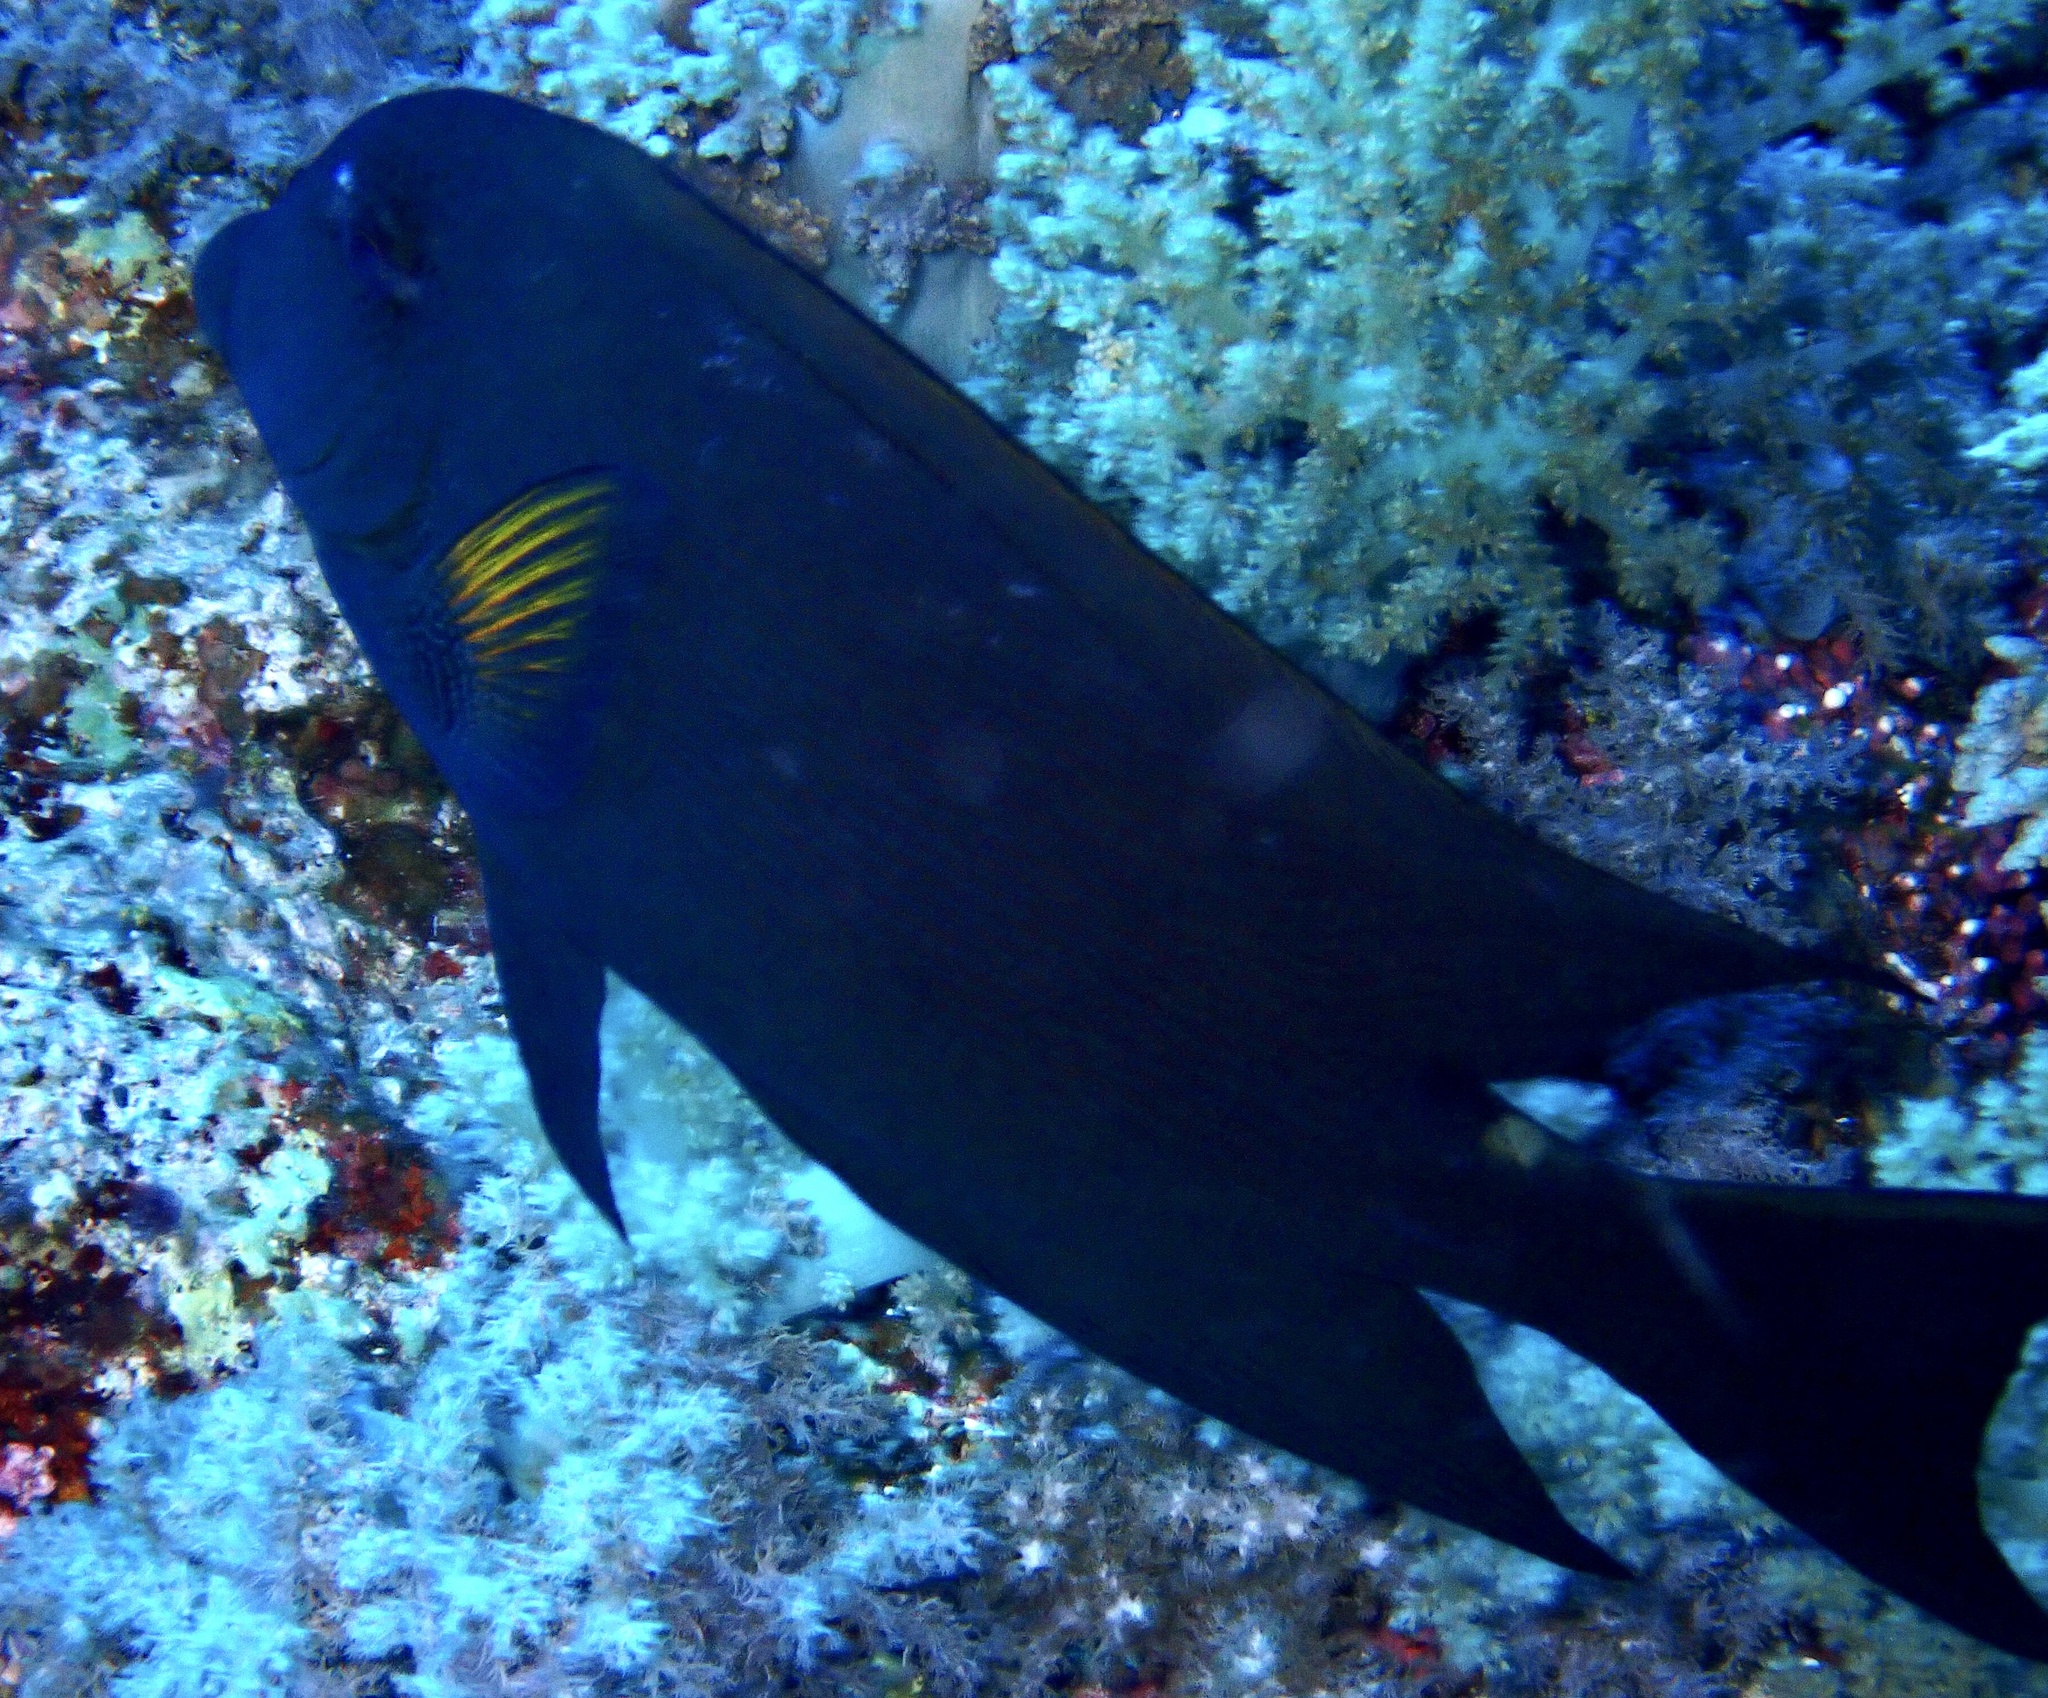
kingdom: Animalia
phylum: Chordata
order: Perciformes
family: Acanthuridae
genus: Ctenochaetus
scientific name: Ctenochaetus striatus
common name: Bristle-toothed surgeonfish
